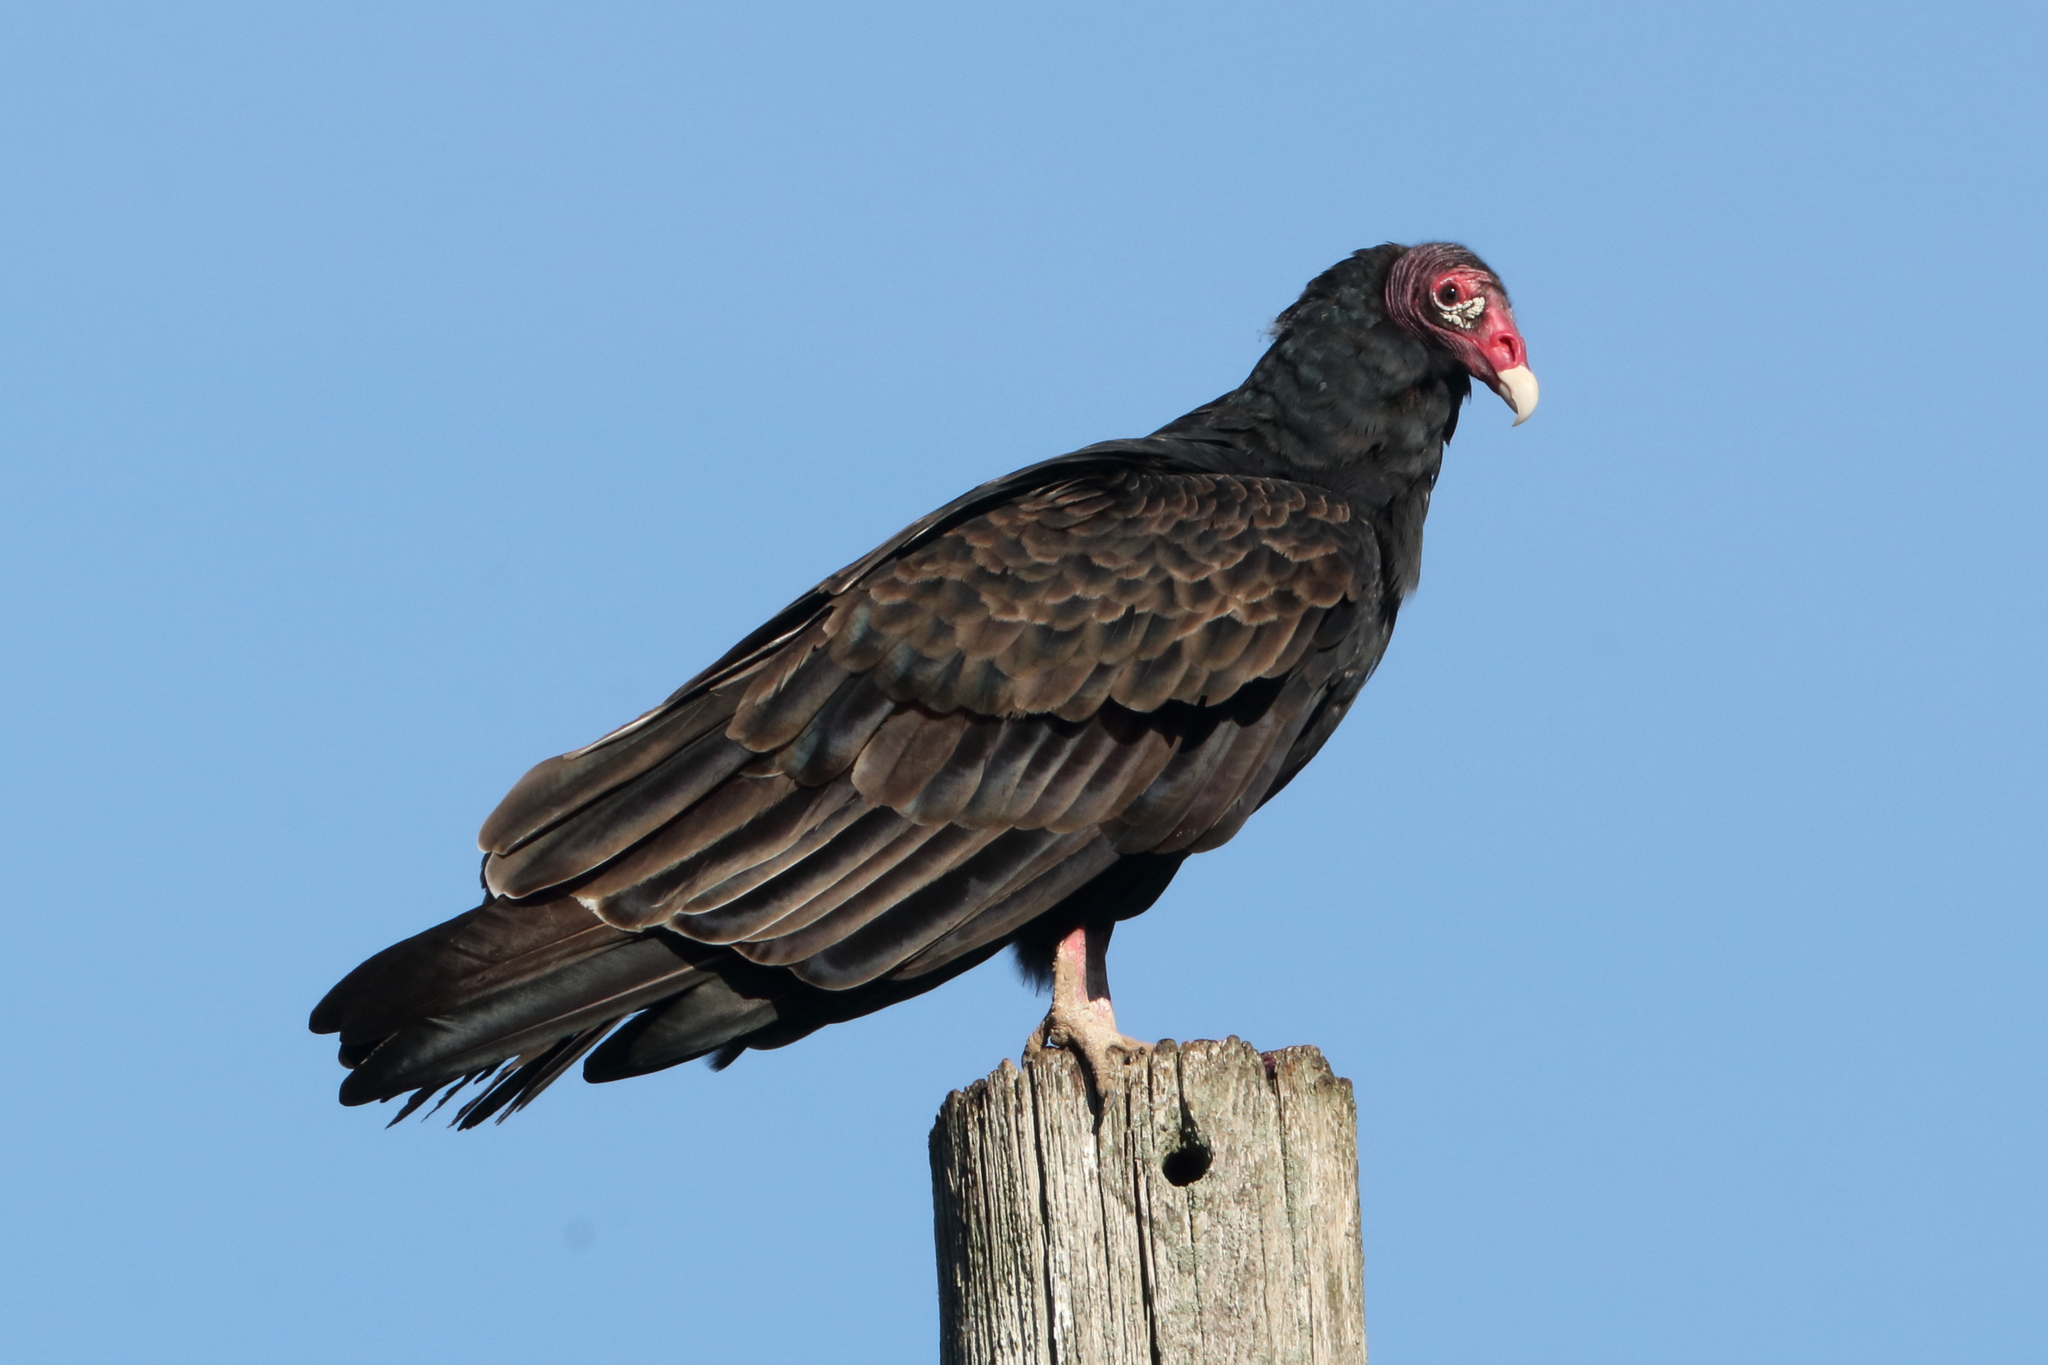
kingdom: Animalia
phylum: Chordata
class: Aves
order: Accipitriformes
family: Cathartidae
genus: Cathartes
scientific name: Cathartes aura
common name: Turkey vulture
